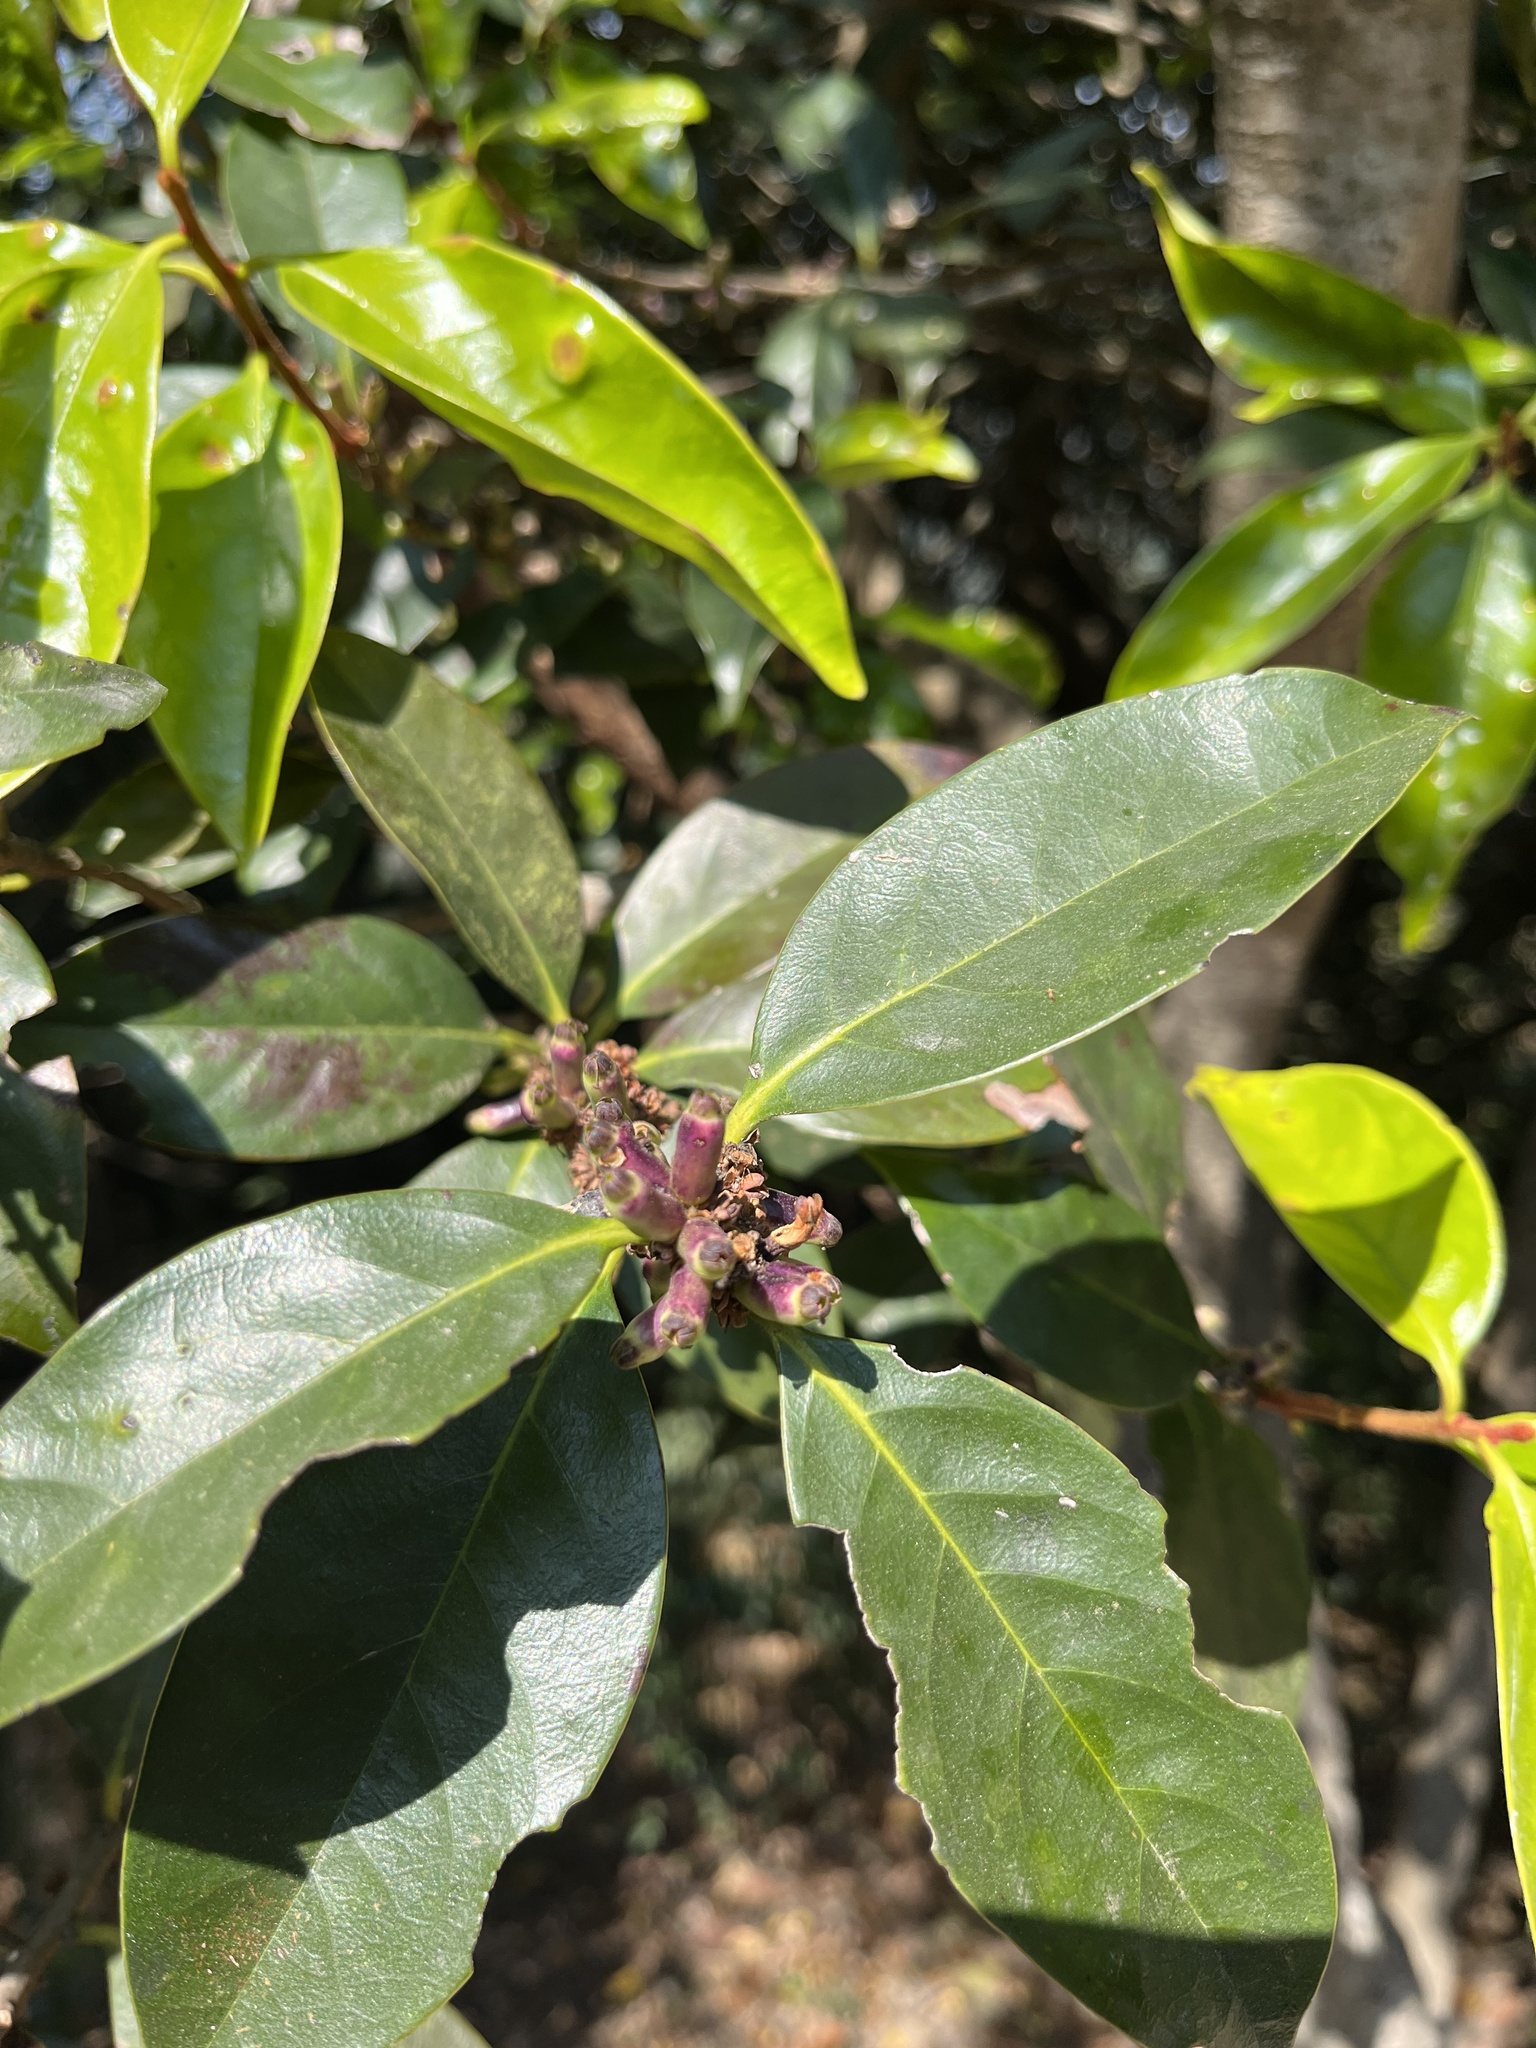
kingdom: Plantae
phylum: Tracheophyta
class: Magnoliopsida
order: Ericales
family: Symplocaceae
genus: Symplocos
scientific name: Symplocos congesta
